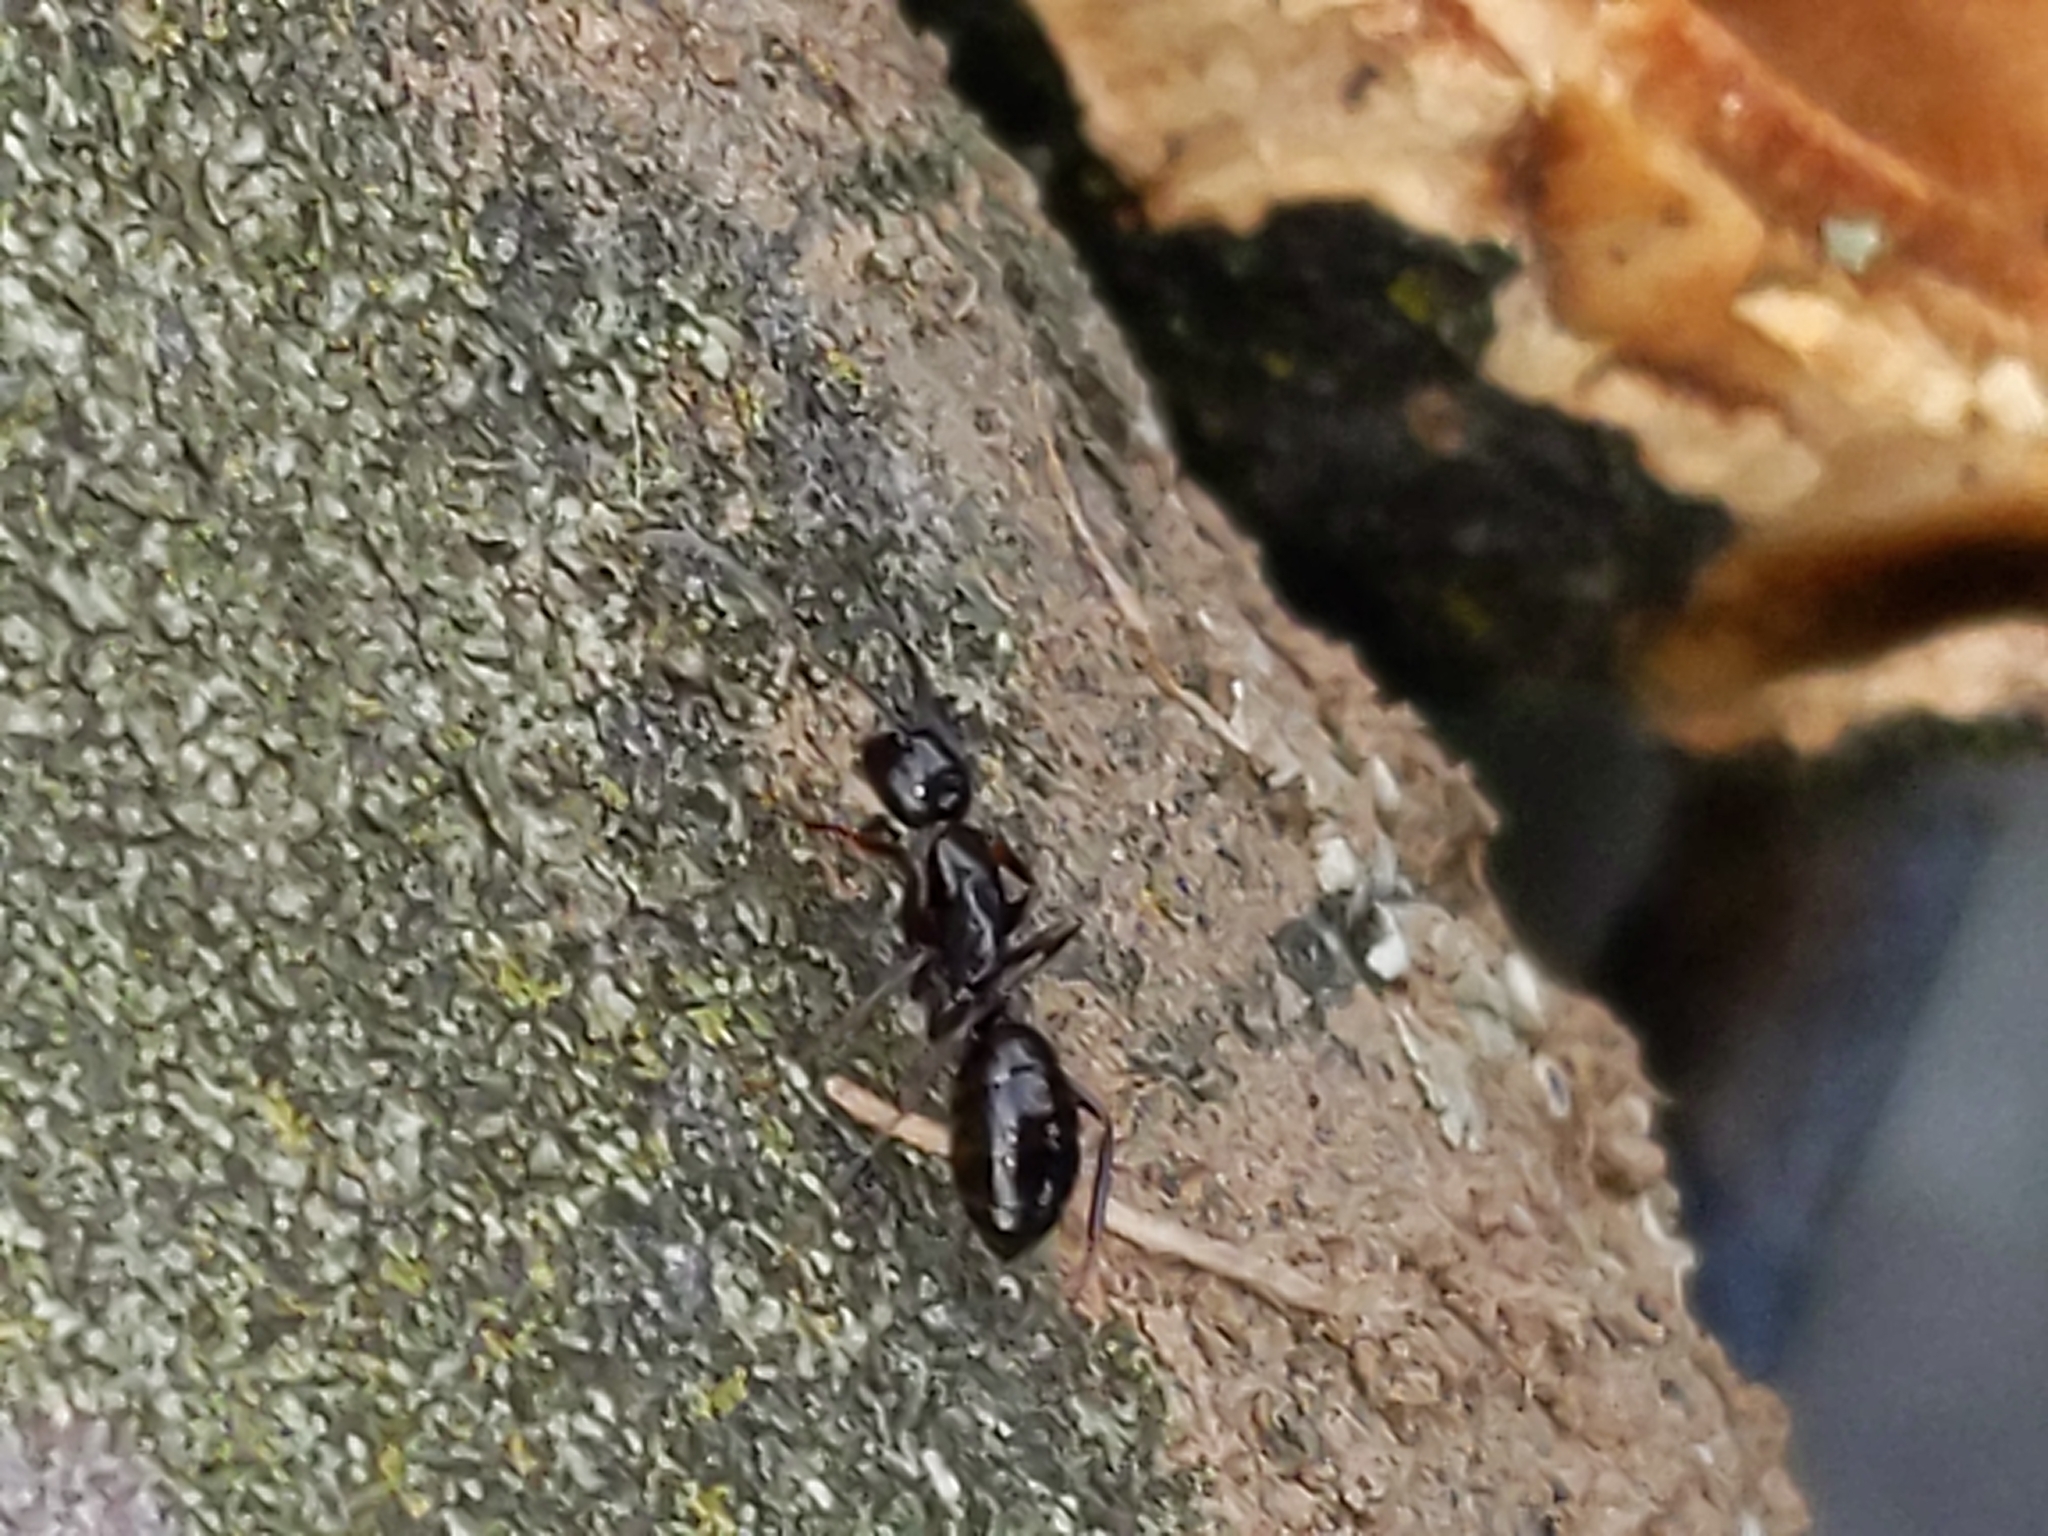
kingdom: Animalia
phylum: Arthropoda
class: Insecta
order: Hymenoptera
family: Formicidae
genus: Camponotus
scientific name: Camponotus
